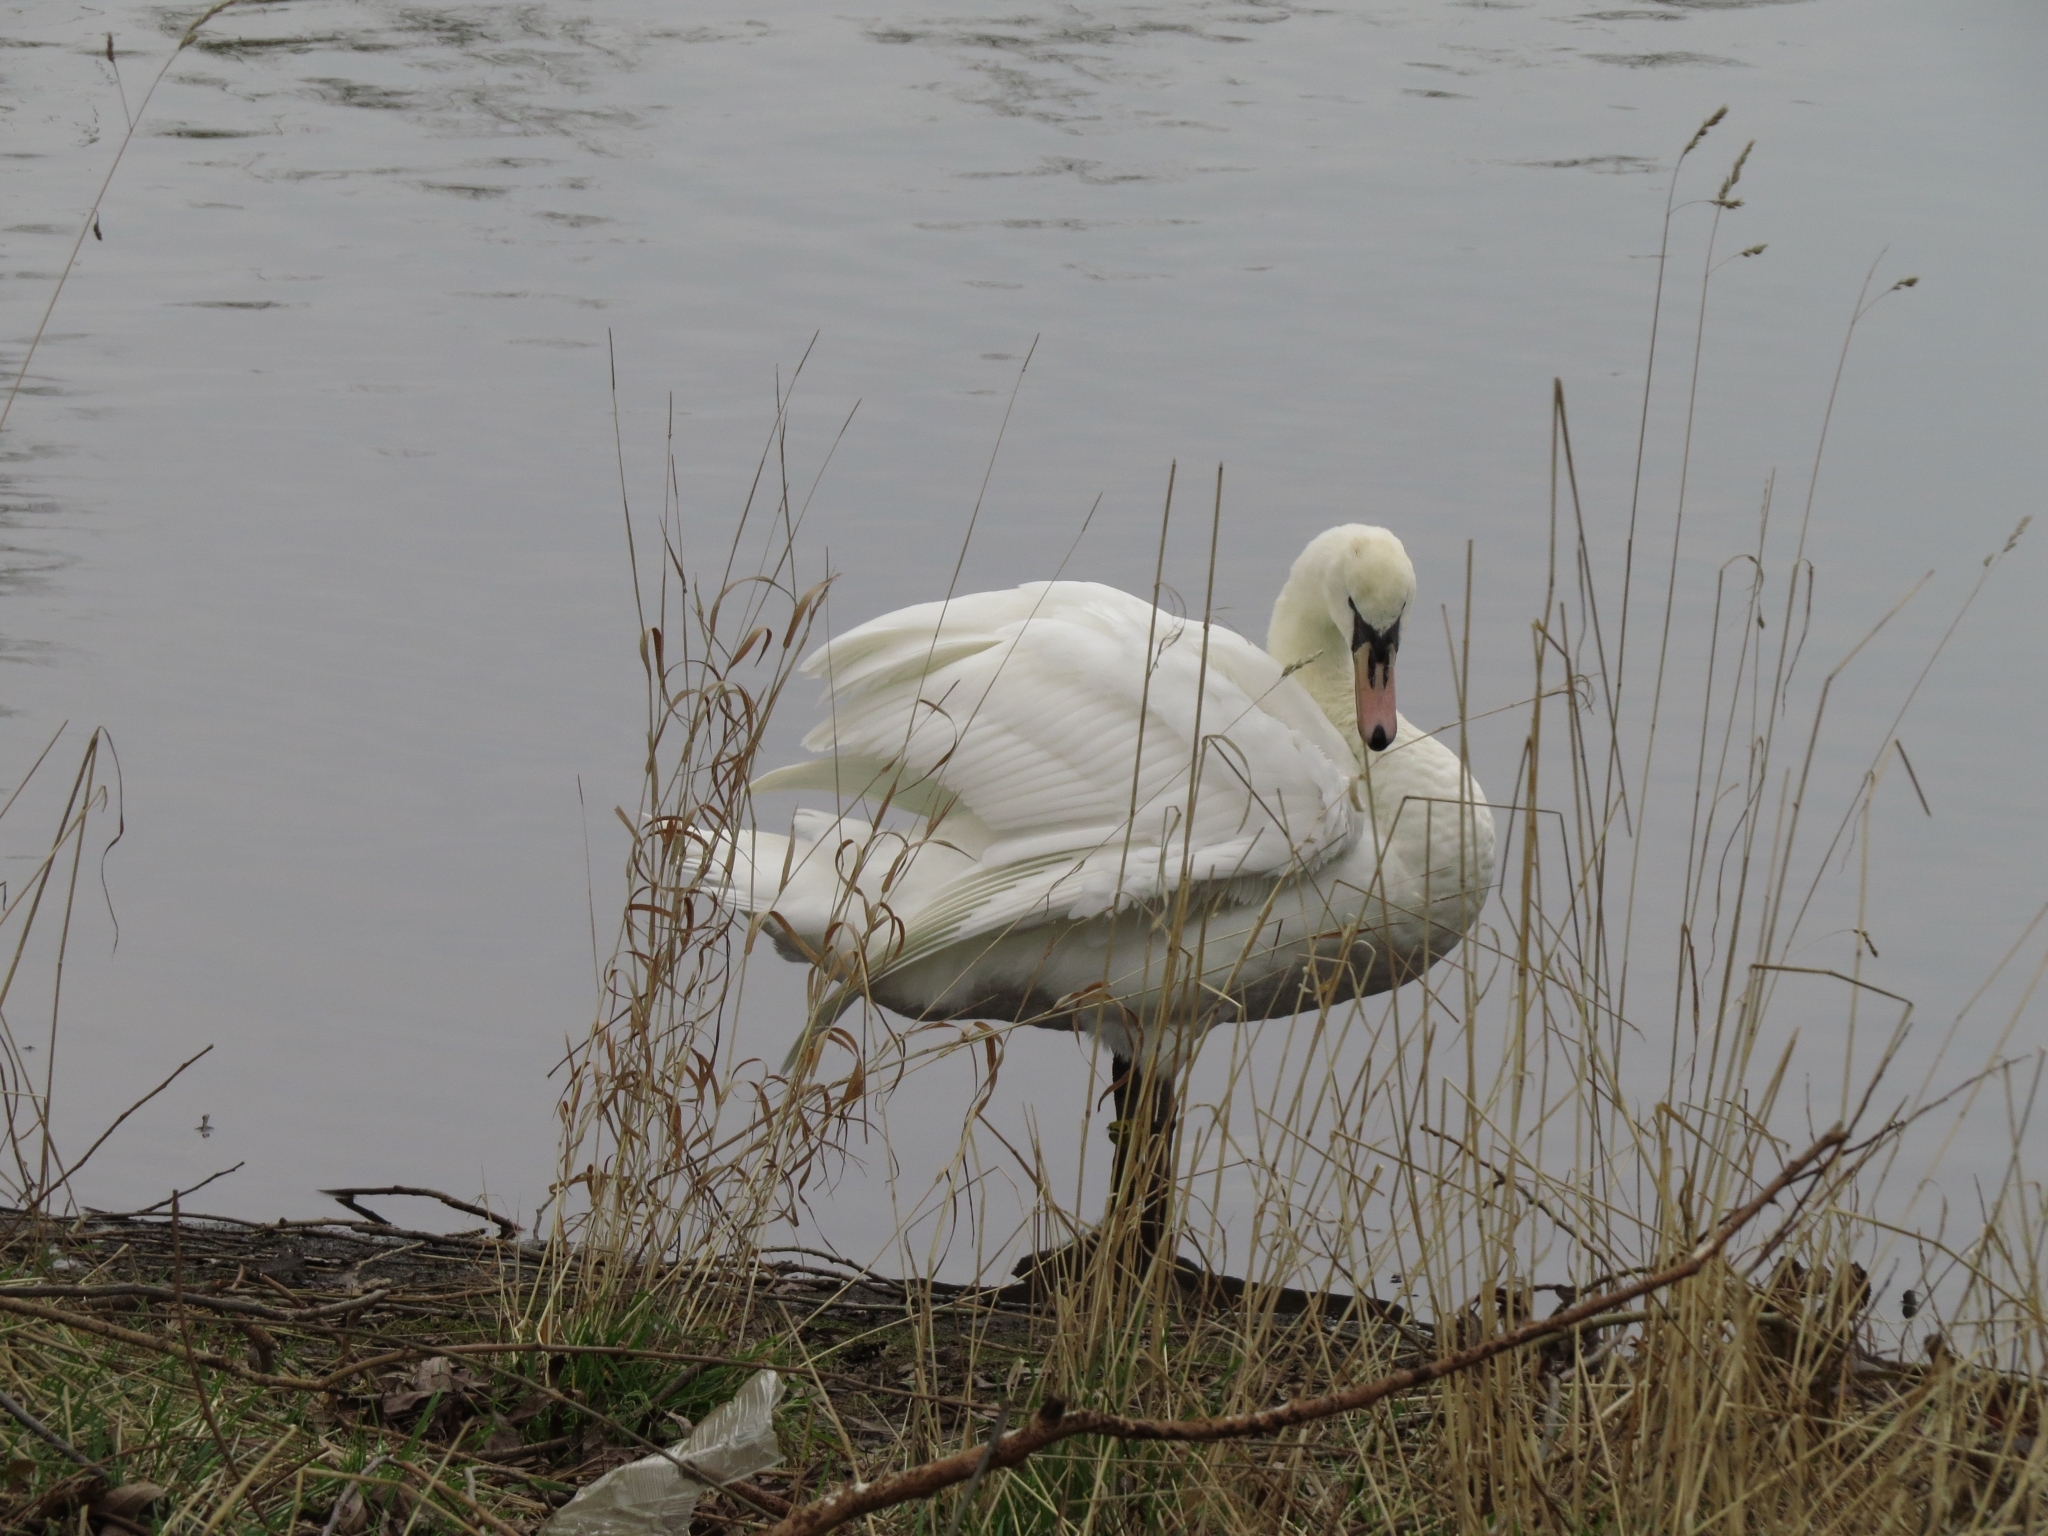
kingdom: Animalia
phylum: Chordata
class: Aves
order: Anseriformes
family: Anatidae
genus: Cygnus
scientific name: Cygnus olor
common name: Mute swan
